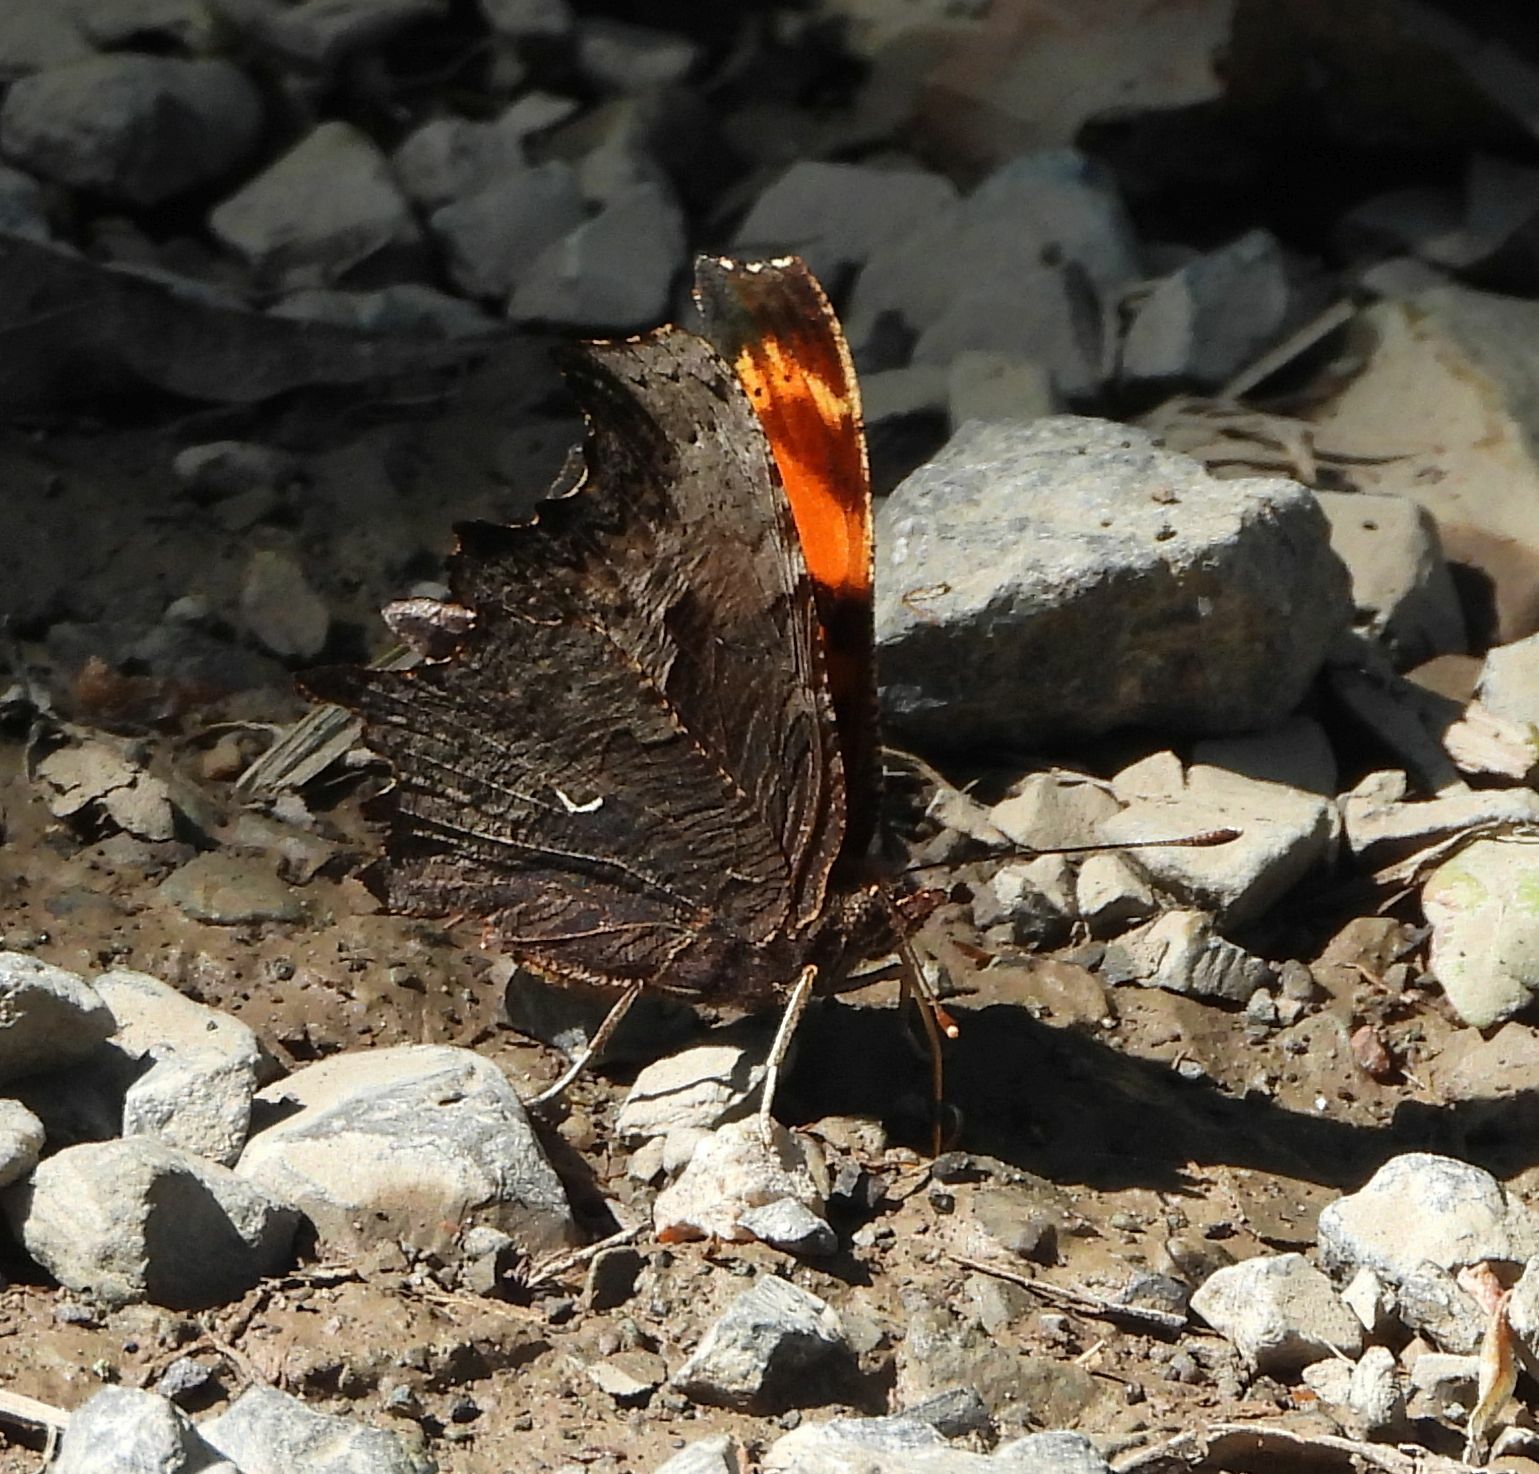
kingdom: Animalia
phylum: Arthropoda
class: Insecta
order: Lepidoptera
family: Nymphalidae
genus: Polygonia
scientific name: Polygonia progne
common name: Gray comma
